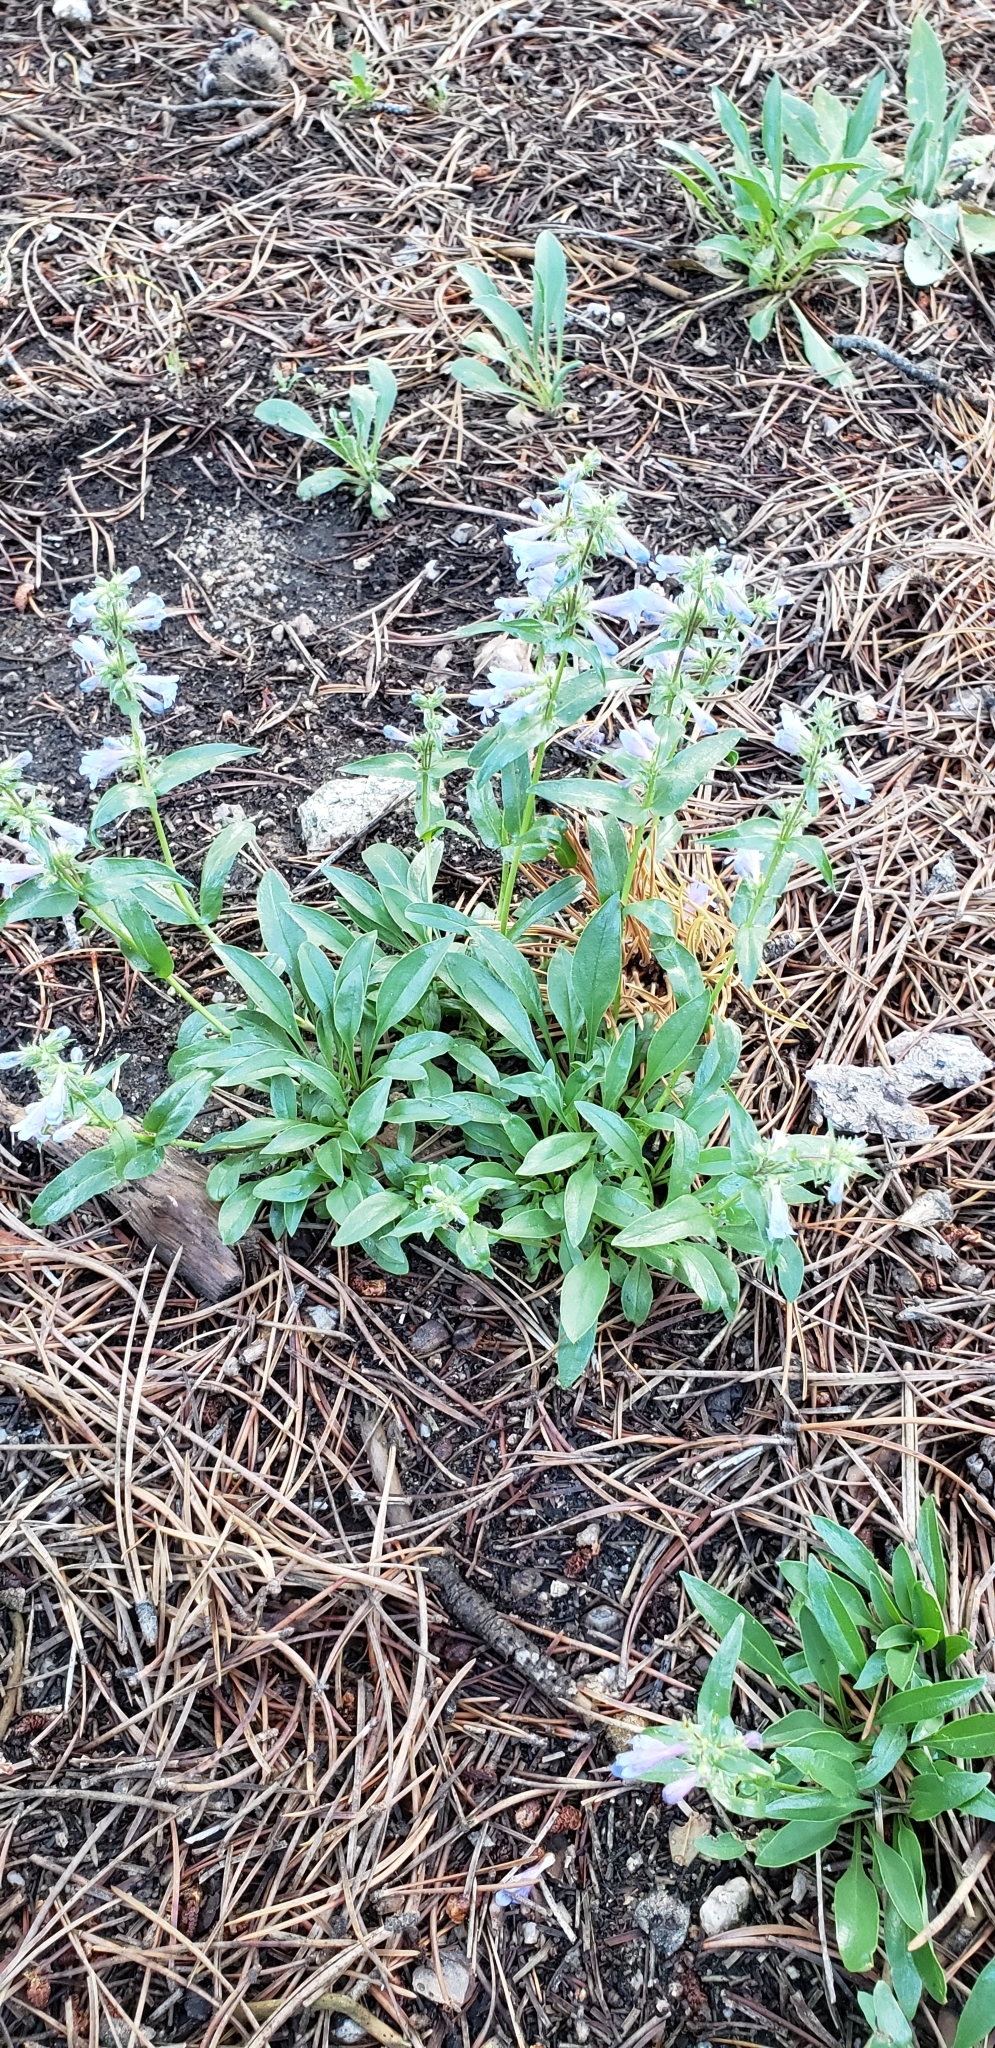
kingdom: Plantae
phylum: Tracheophyta
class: Magnoliopsida
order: Lamiales
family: Plantaginaceae
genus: Penstemon
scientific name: Penstemon virens
